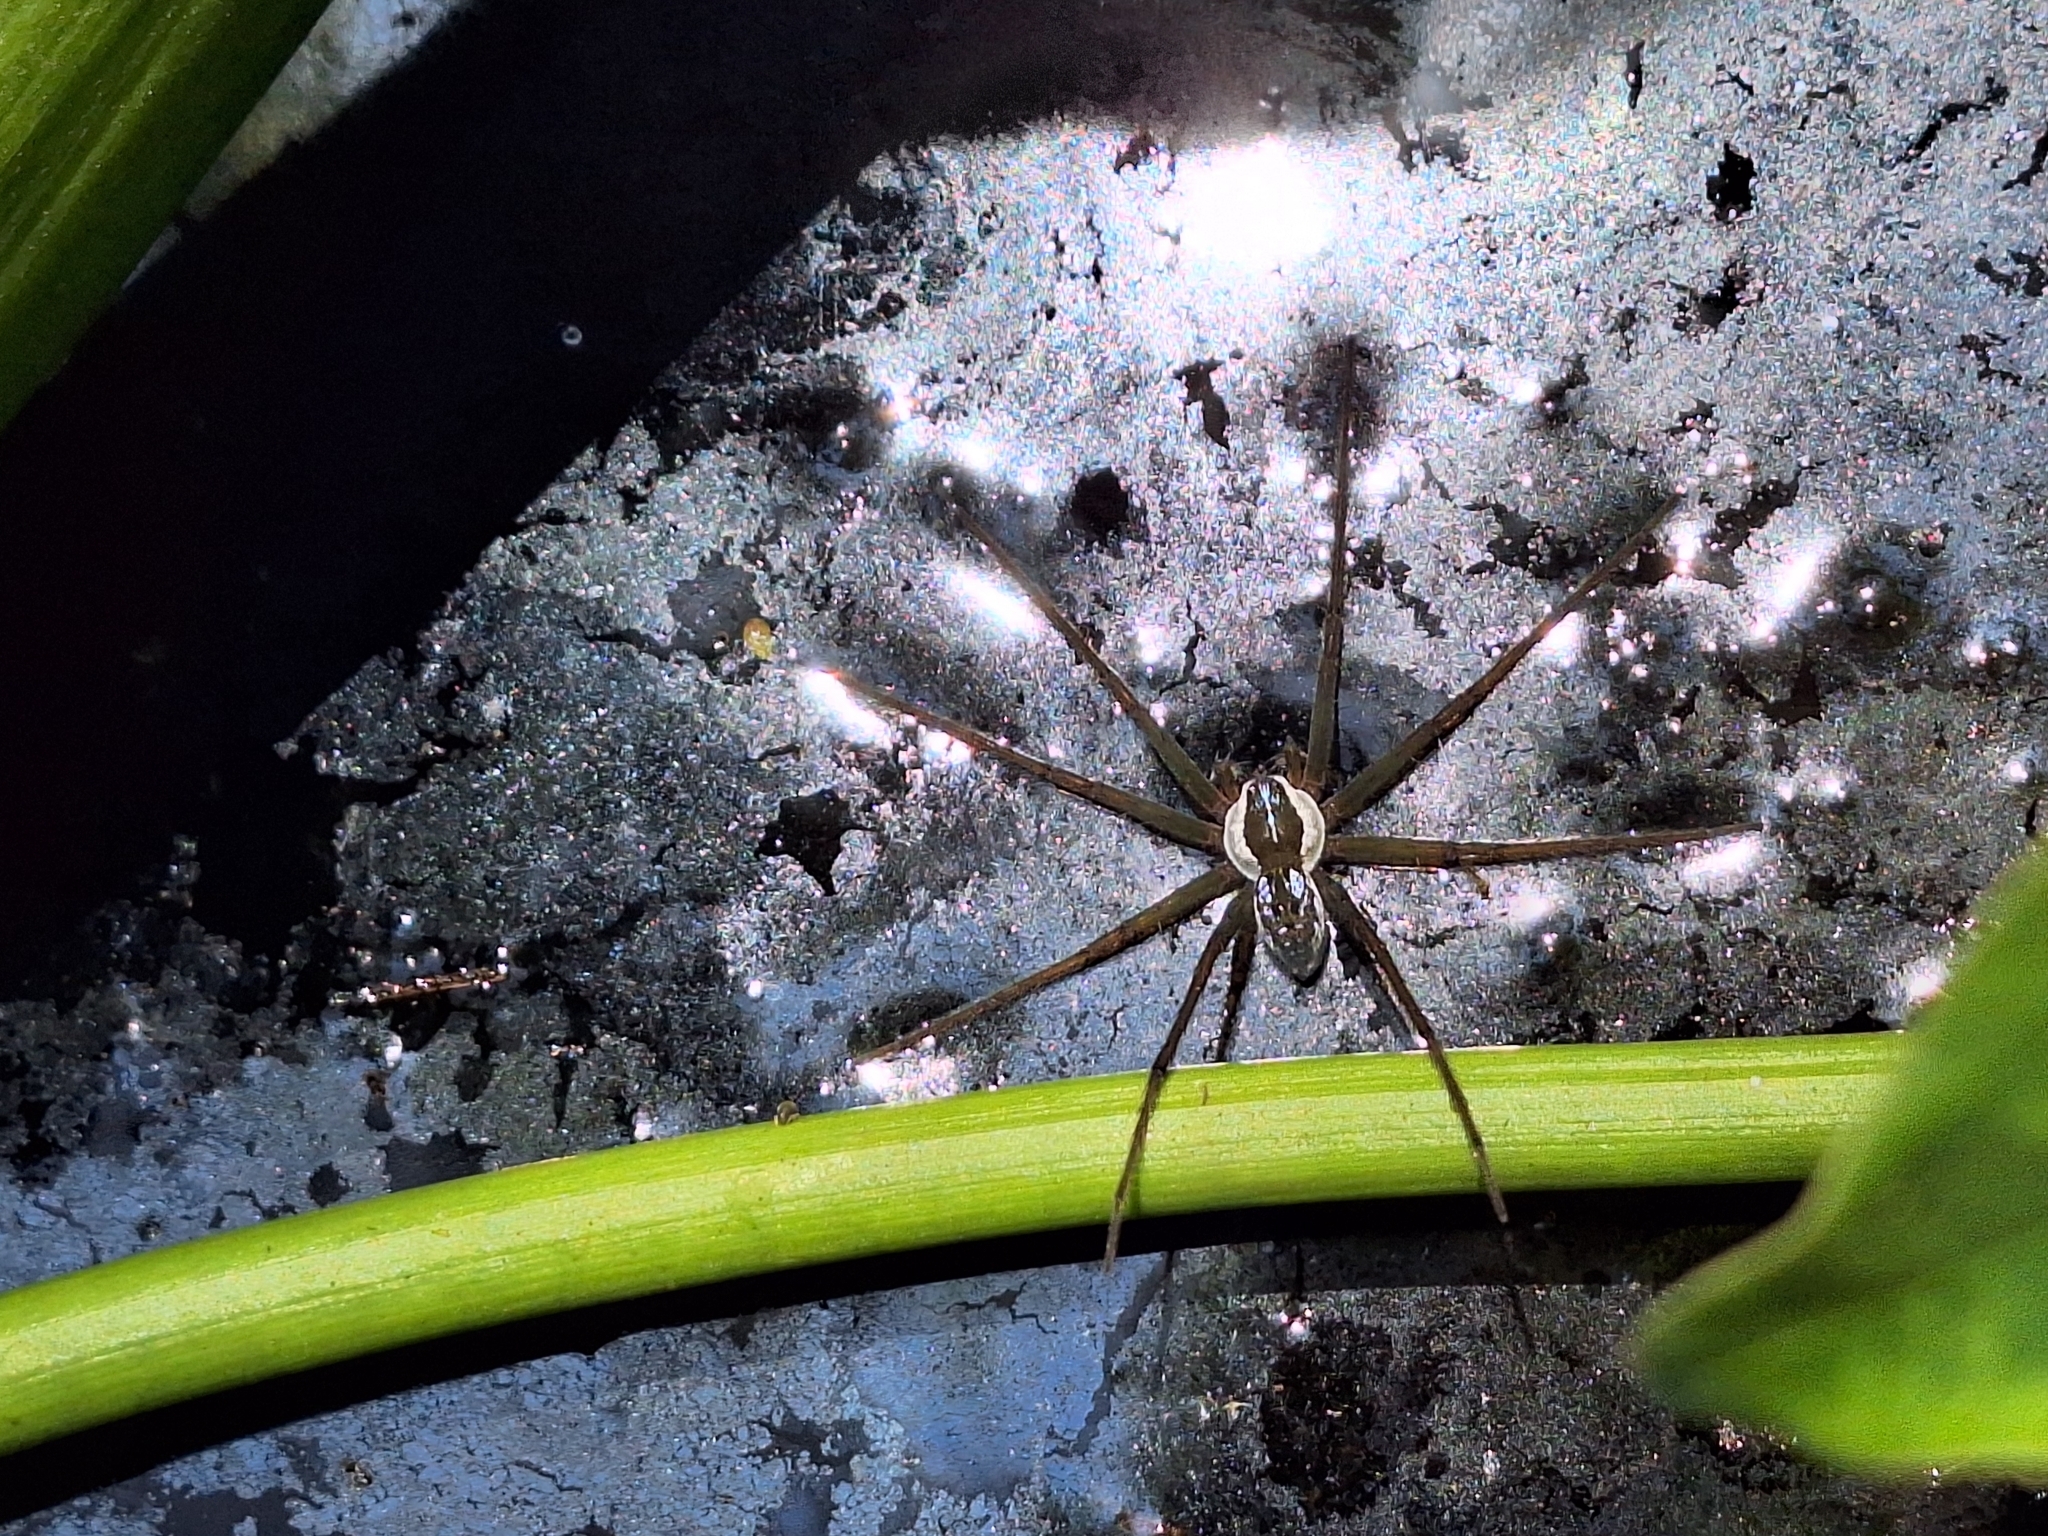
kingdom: Animalia
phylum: Arthropoda
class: Arachnida
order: Araneae
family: Pisauridae
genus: Thaumasia
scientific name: Thaumasia velox
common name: Nursery web spiders
